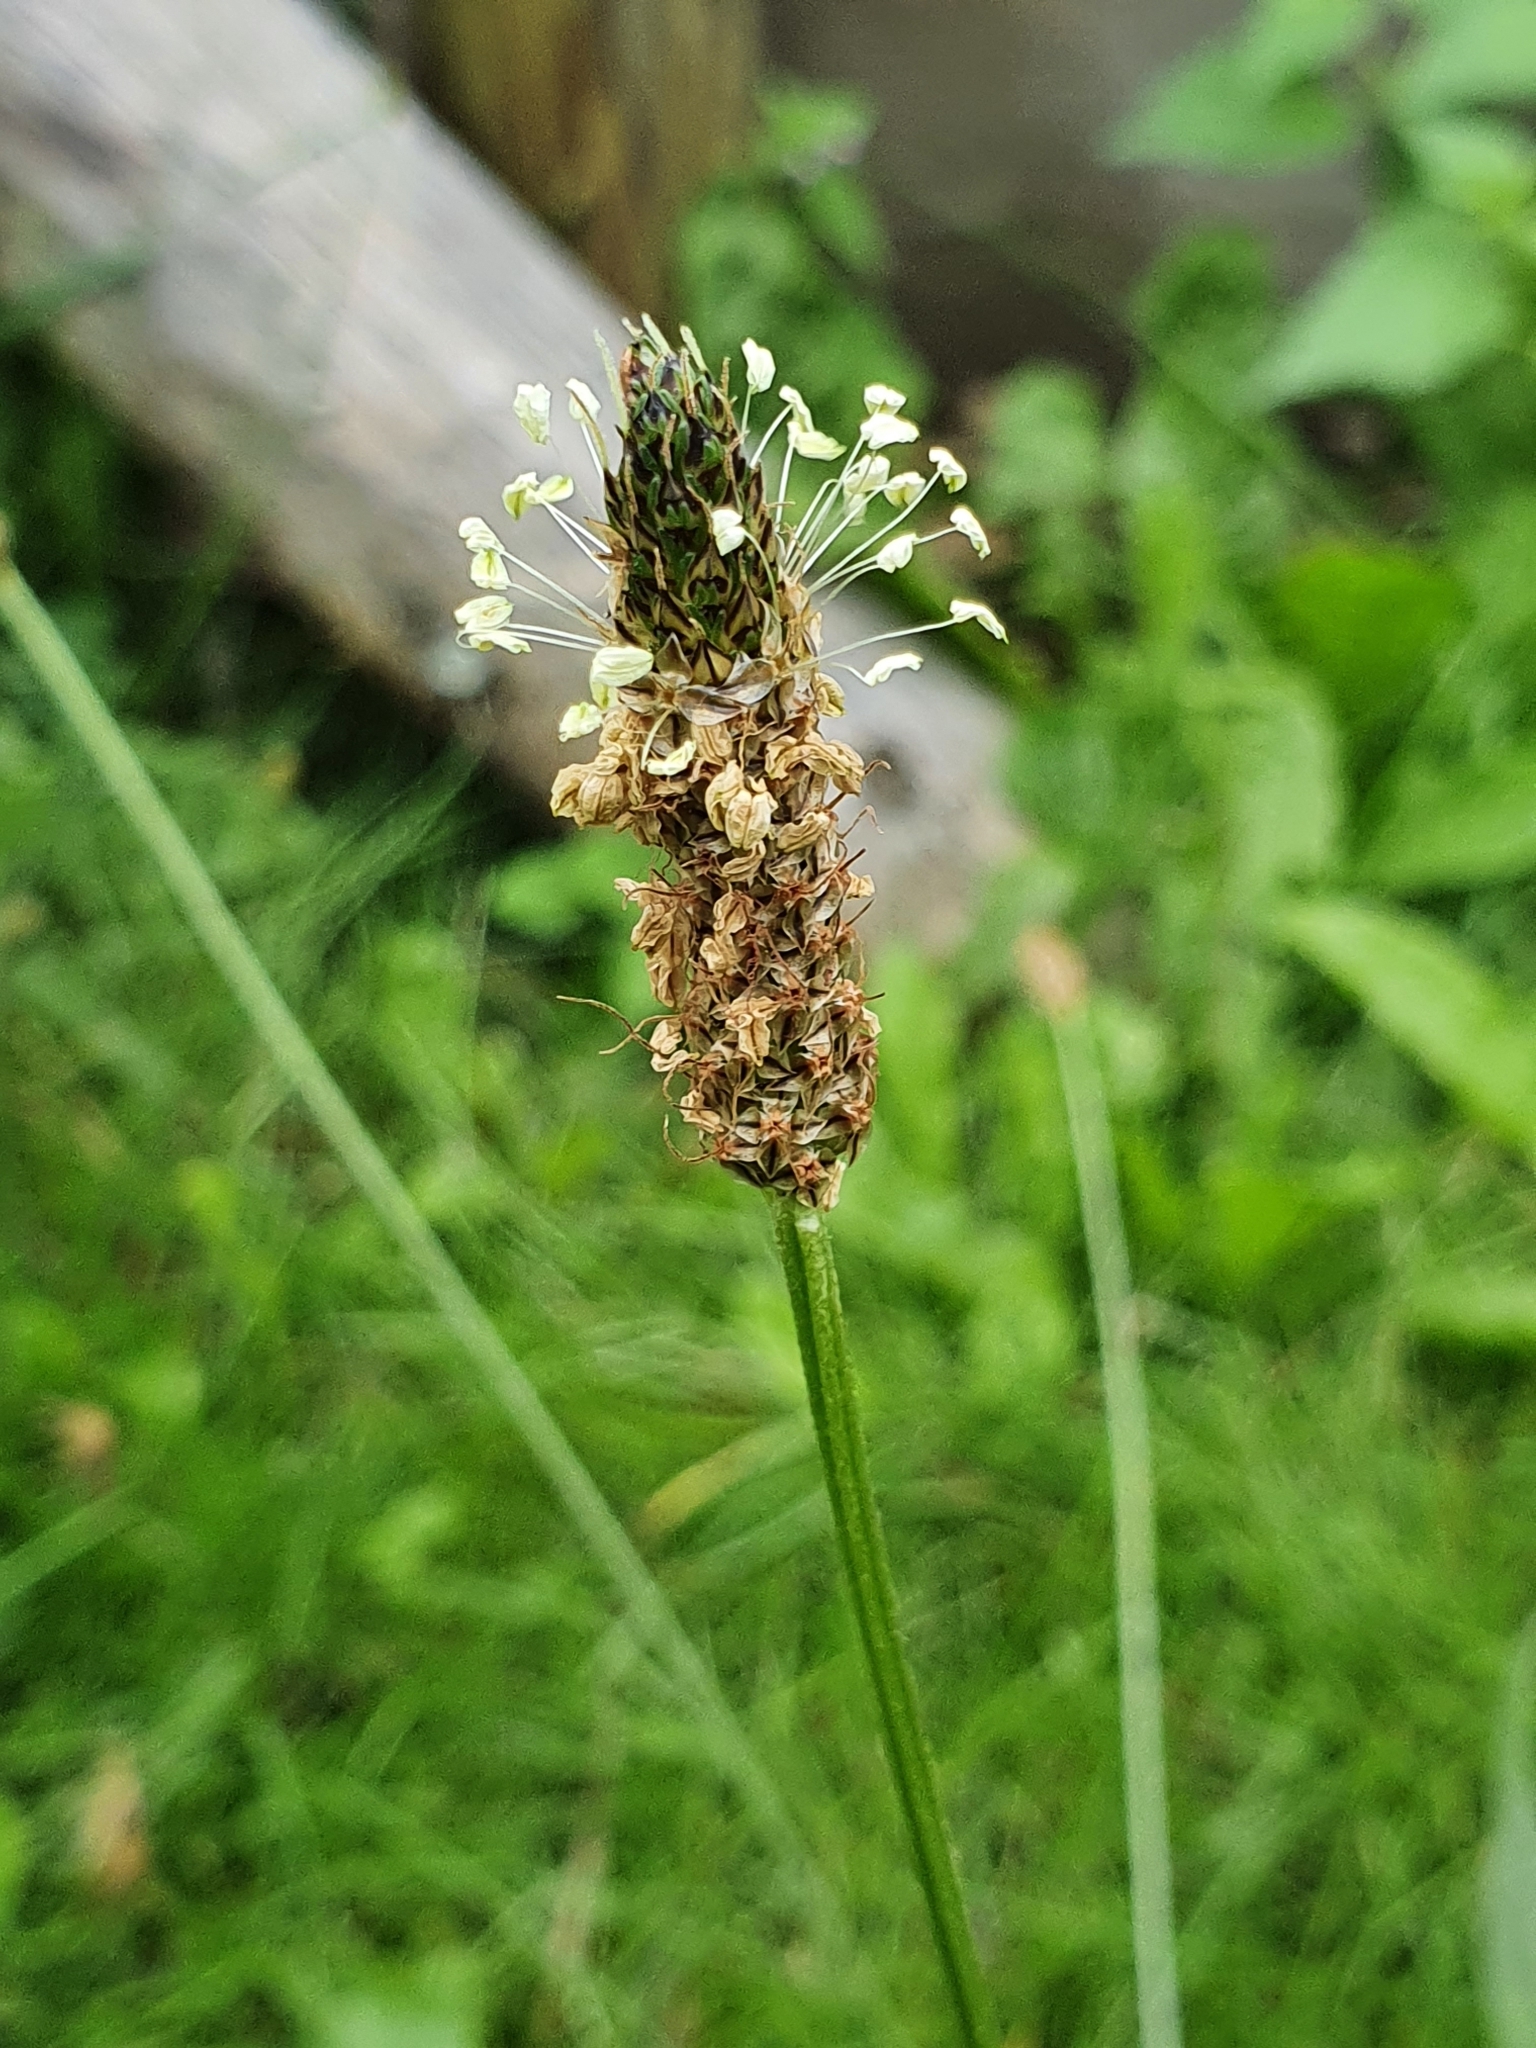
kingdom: Plantae
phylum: Tracheophyta
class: Magnoliopsida
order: Lamiales
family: Plantaginaceae
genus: Plantago
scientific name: Plantago lanceolata
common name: Ribwort plantain
